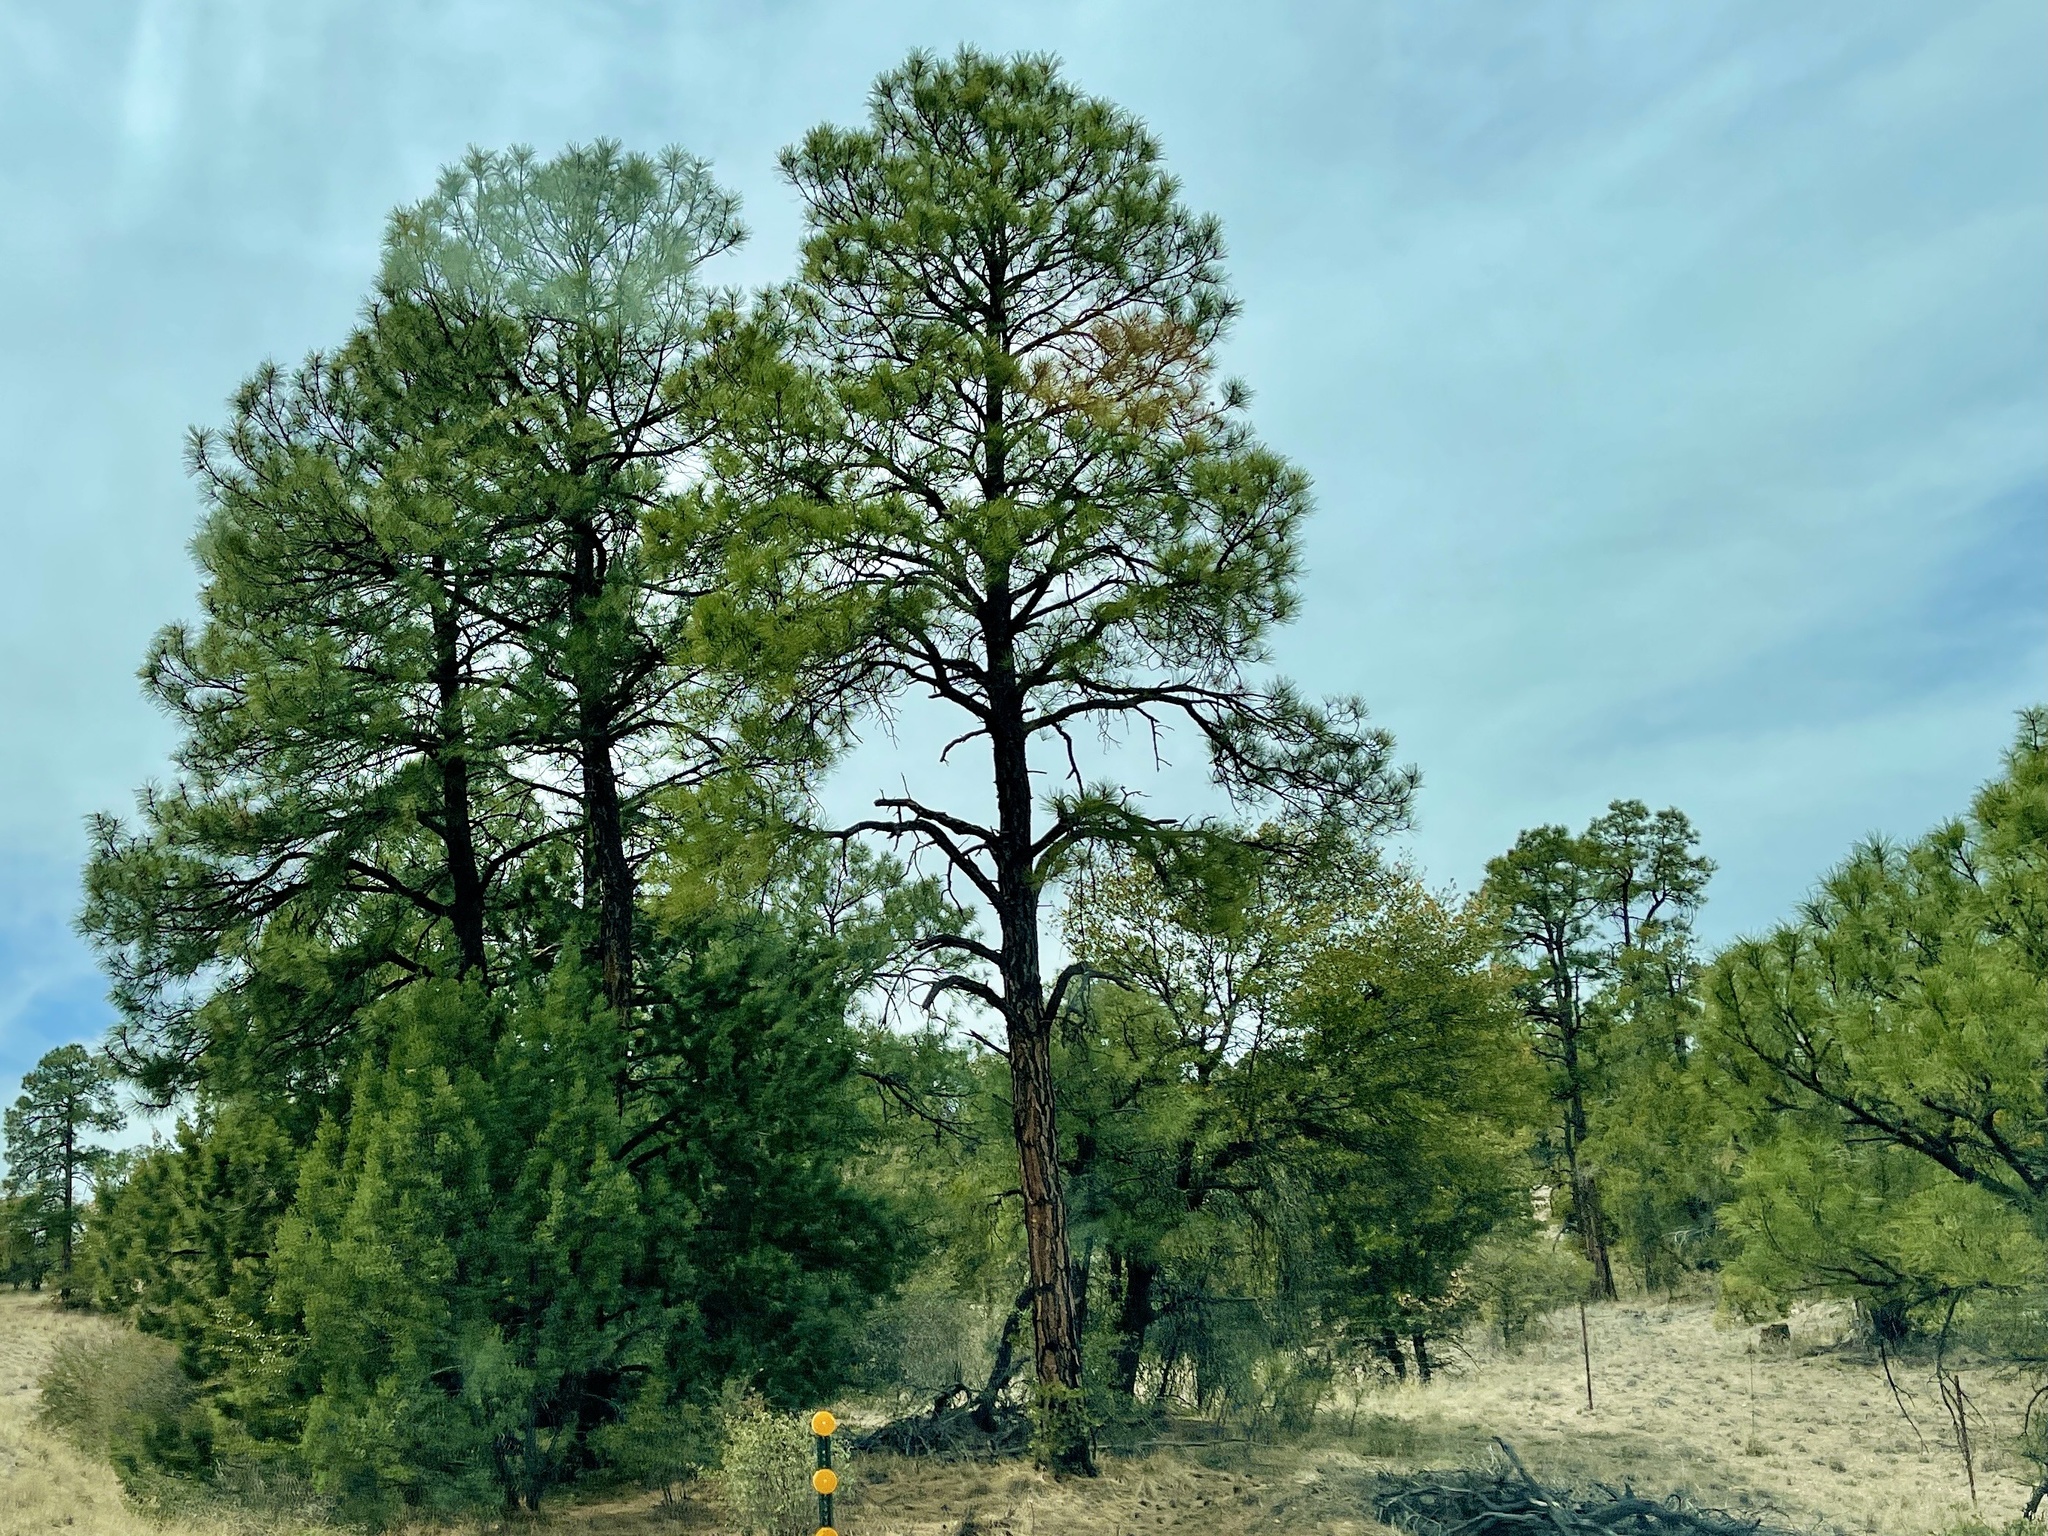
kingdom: Plantae
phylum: Tracheophyta
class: Pinopsida
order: Pinales
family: Pinaceae
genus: Pinus
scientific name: Pinus ponderosa
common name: Western yellow-pine
